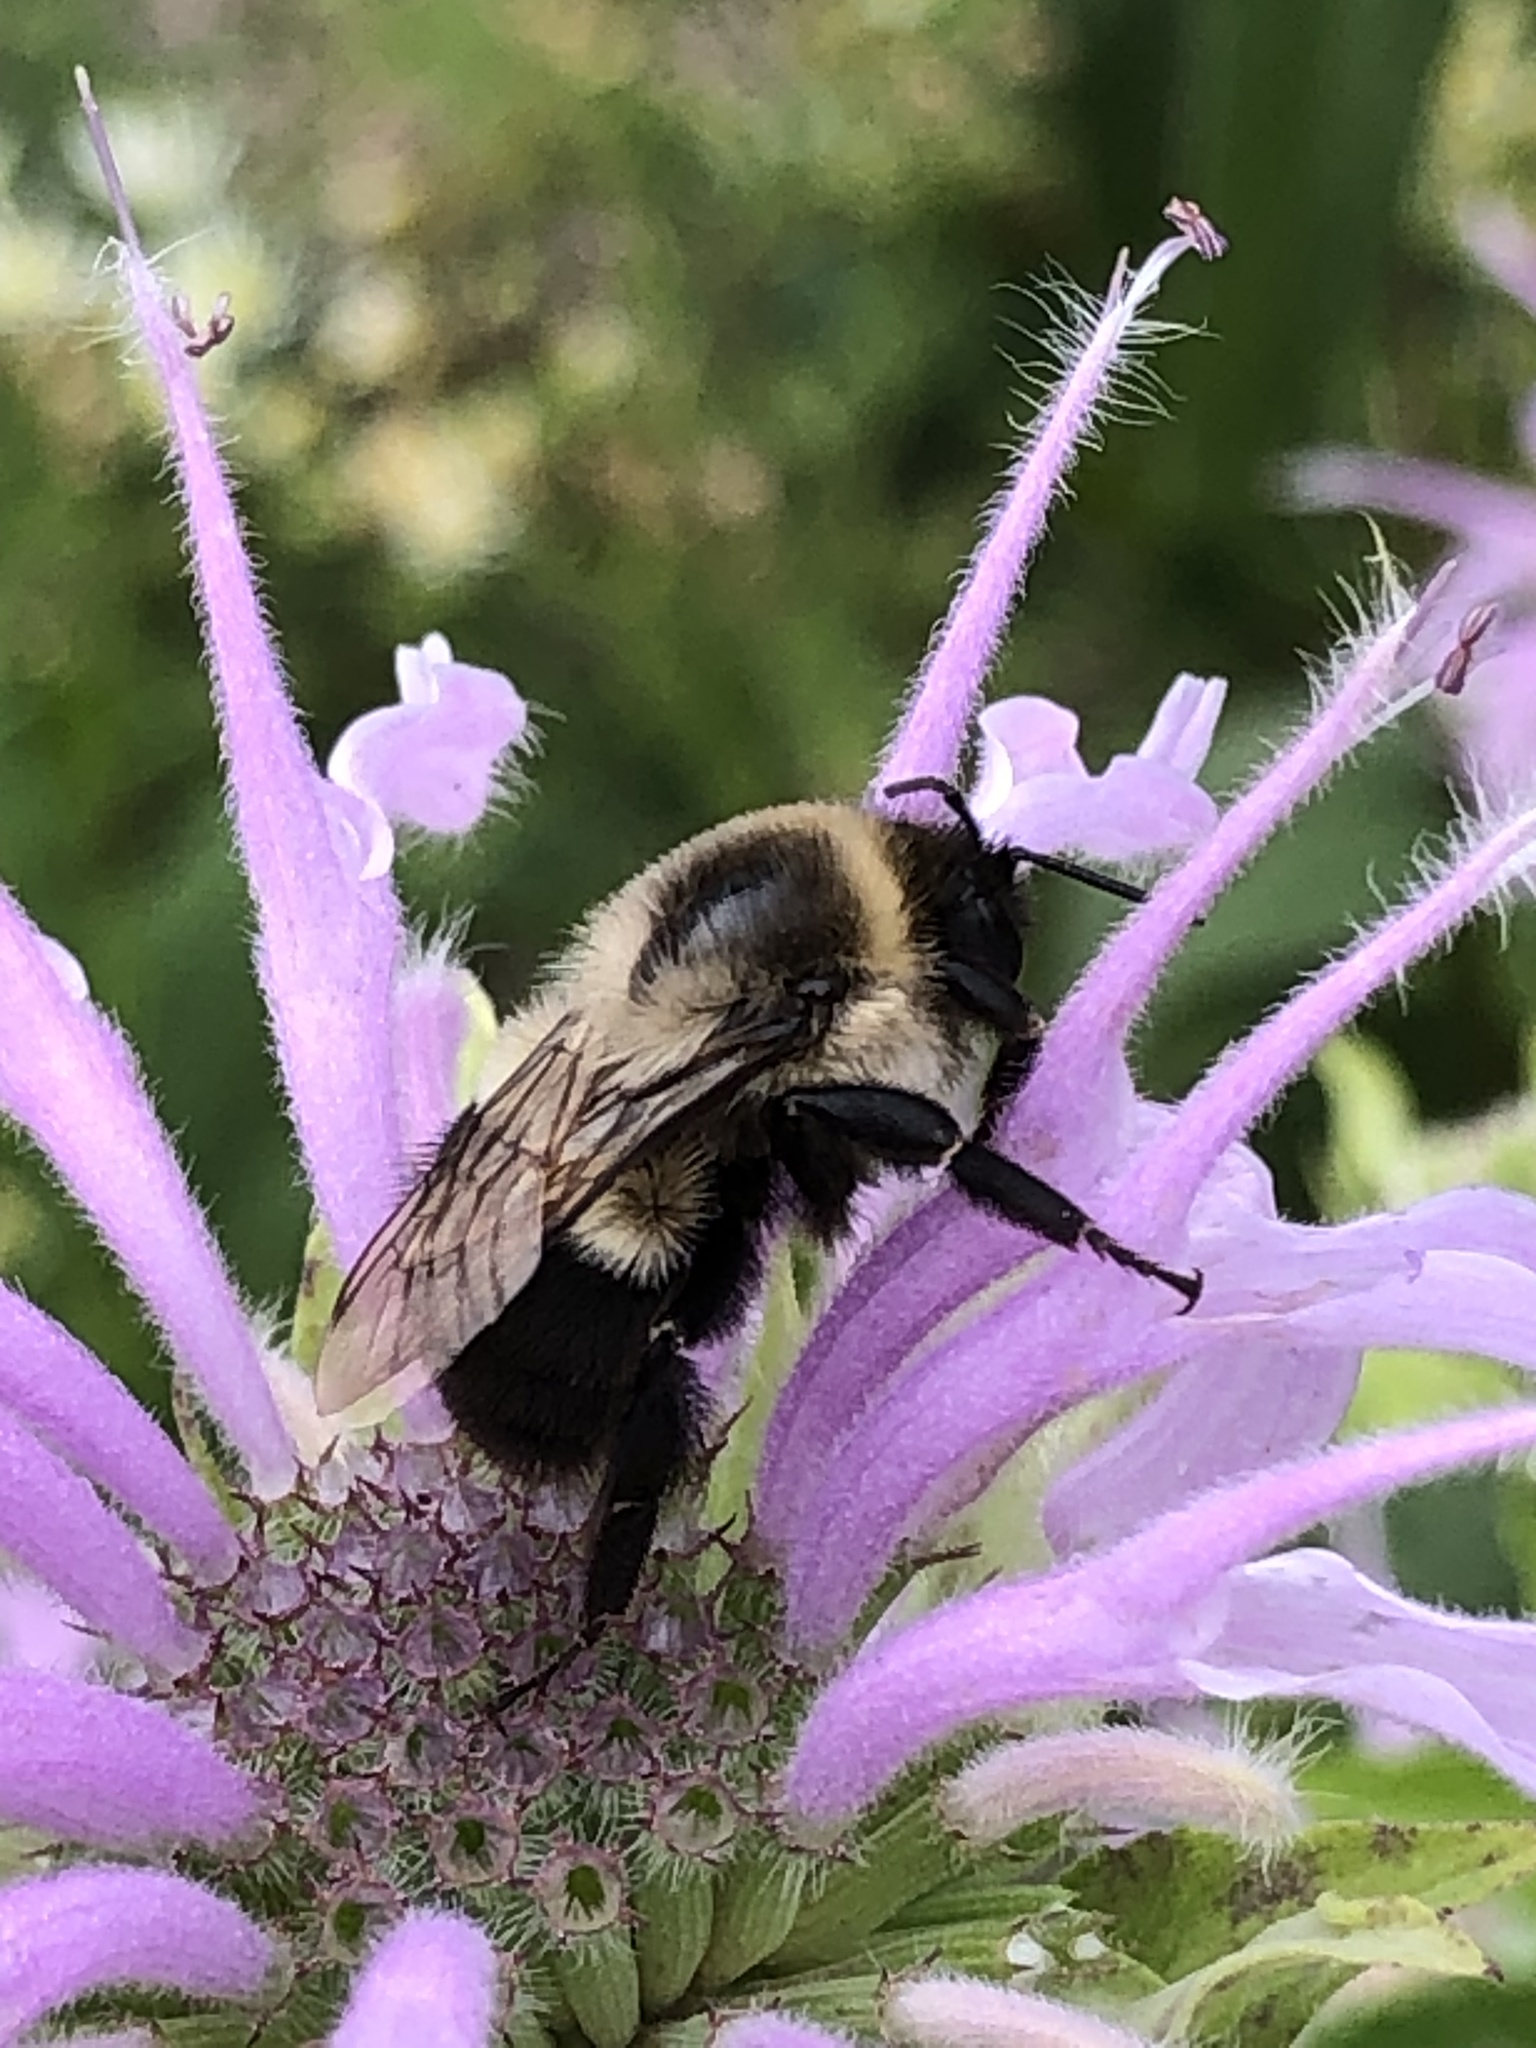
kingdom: Animalia
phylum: Arthropoda
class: Insecta
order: Hymenoptera
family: Apidae
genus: Bombus
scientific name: Bombus impatiens
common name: Common eastern bumble bee
